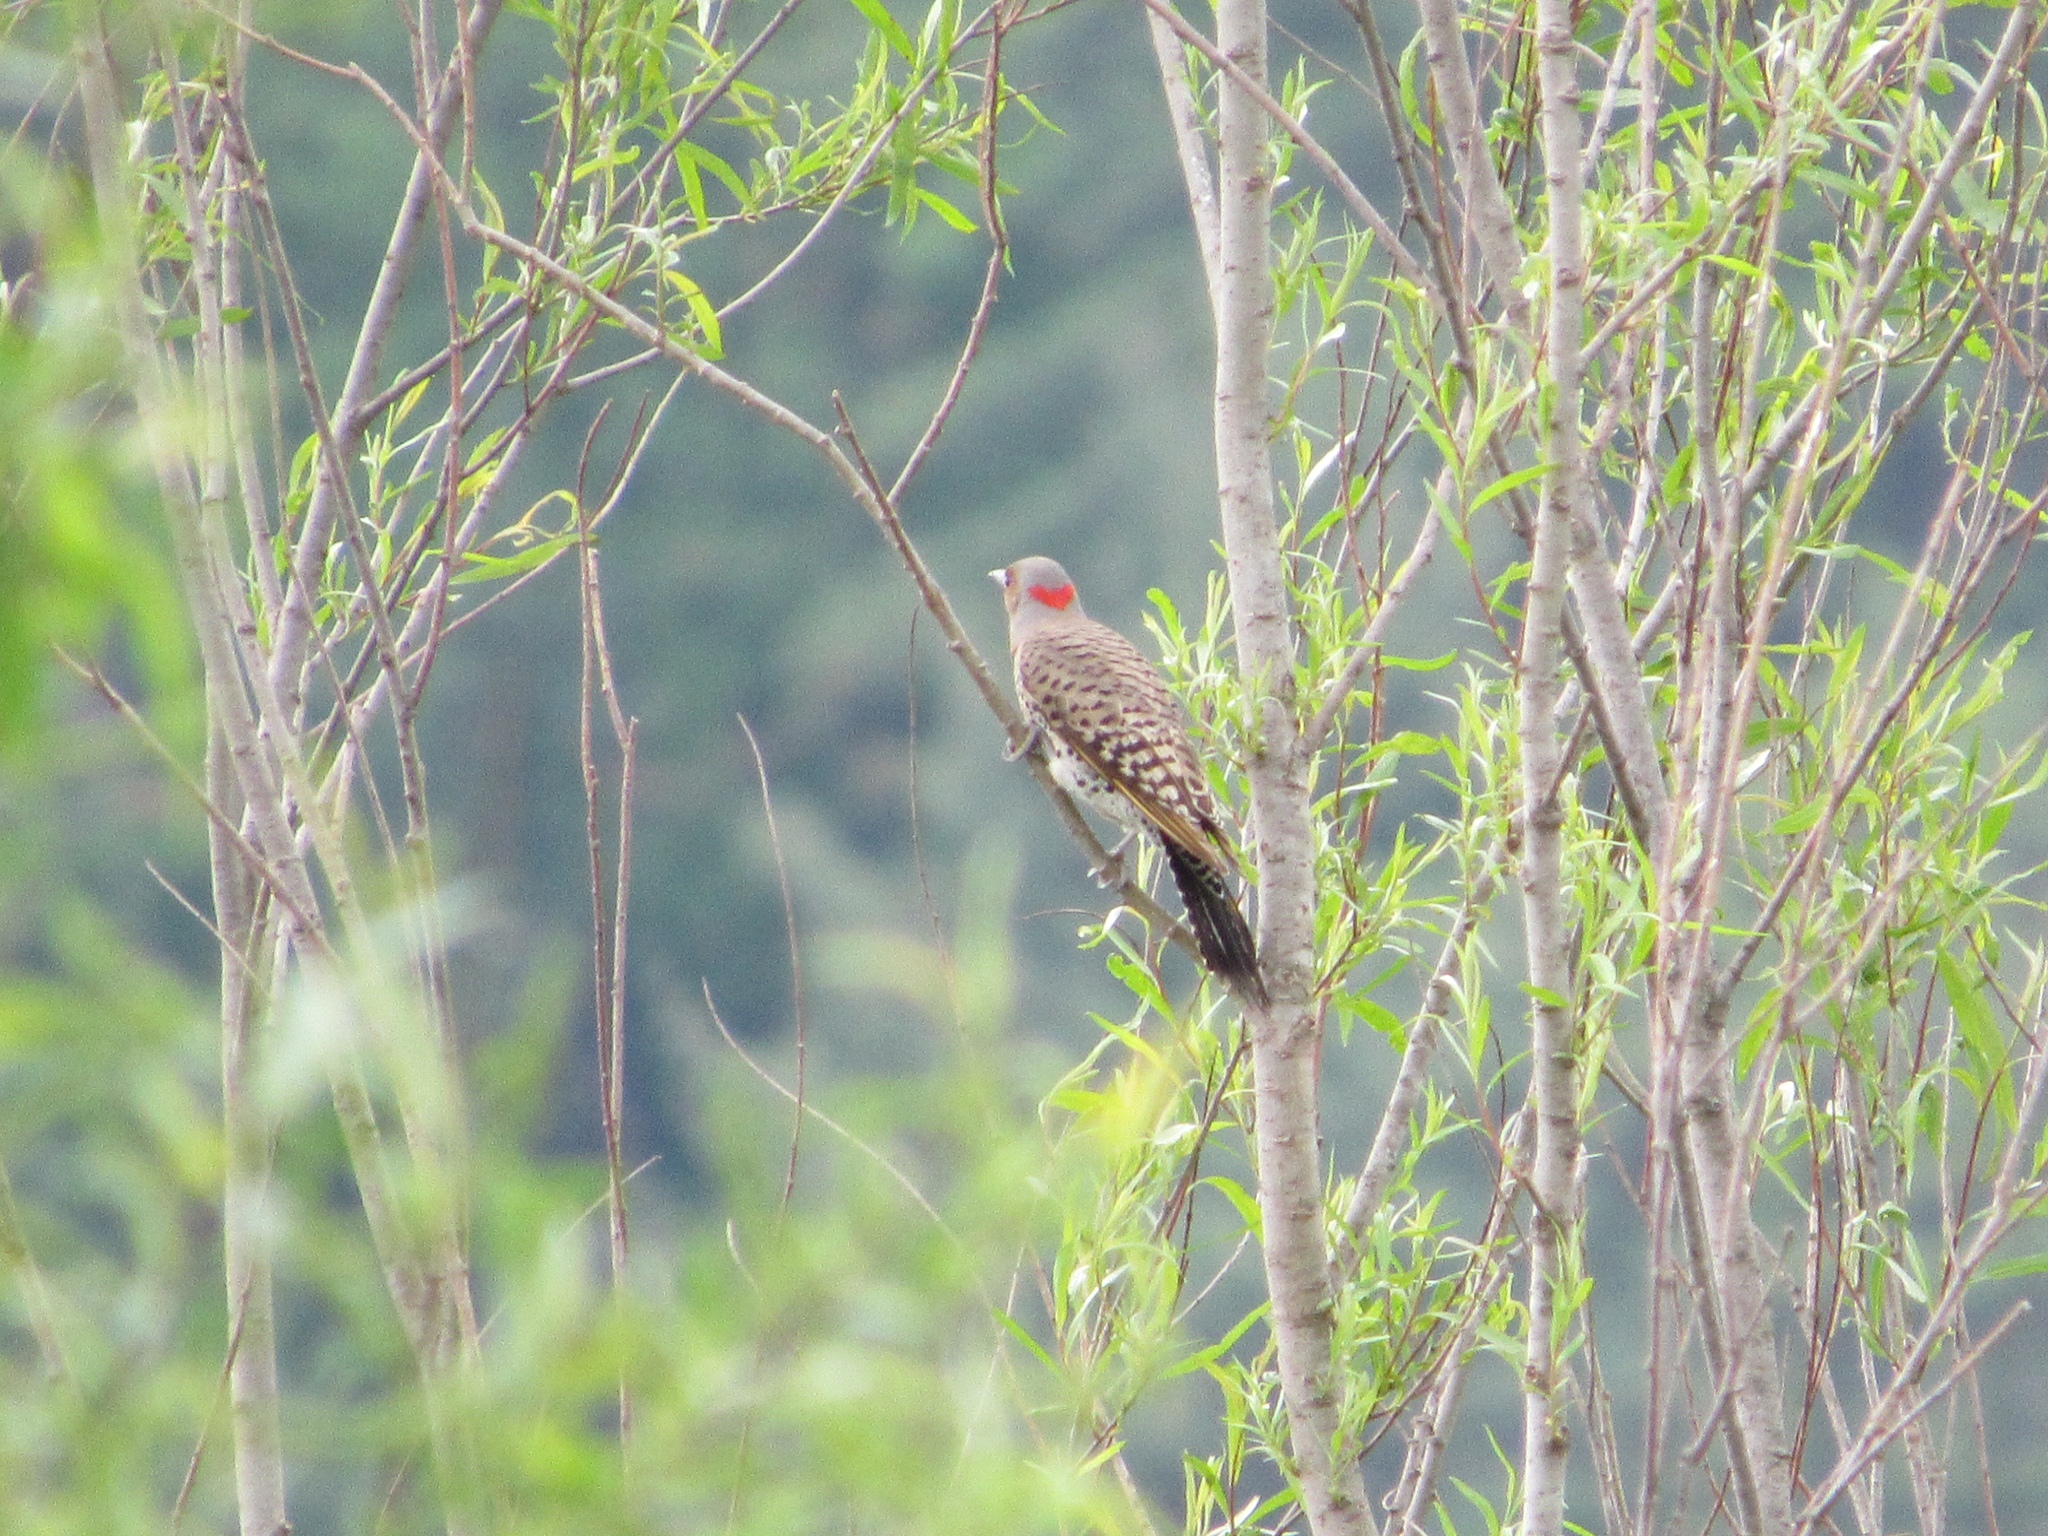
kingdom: Animalia
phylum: Chordata
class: Aves
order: Piciformes
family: Picidae
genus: Colaptes
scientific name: Colaptes auratus
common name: Northern flicker
